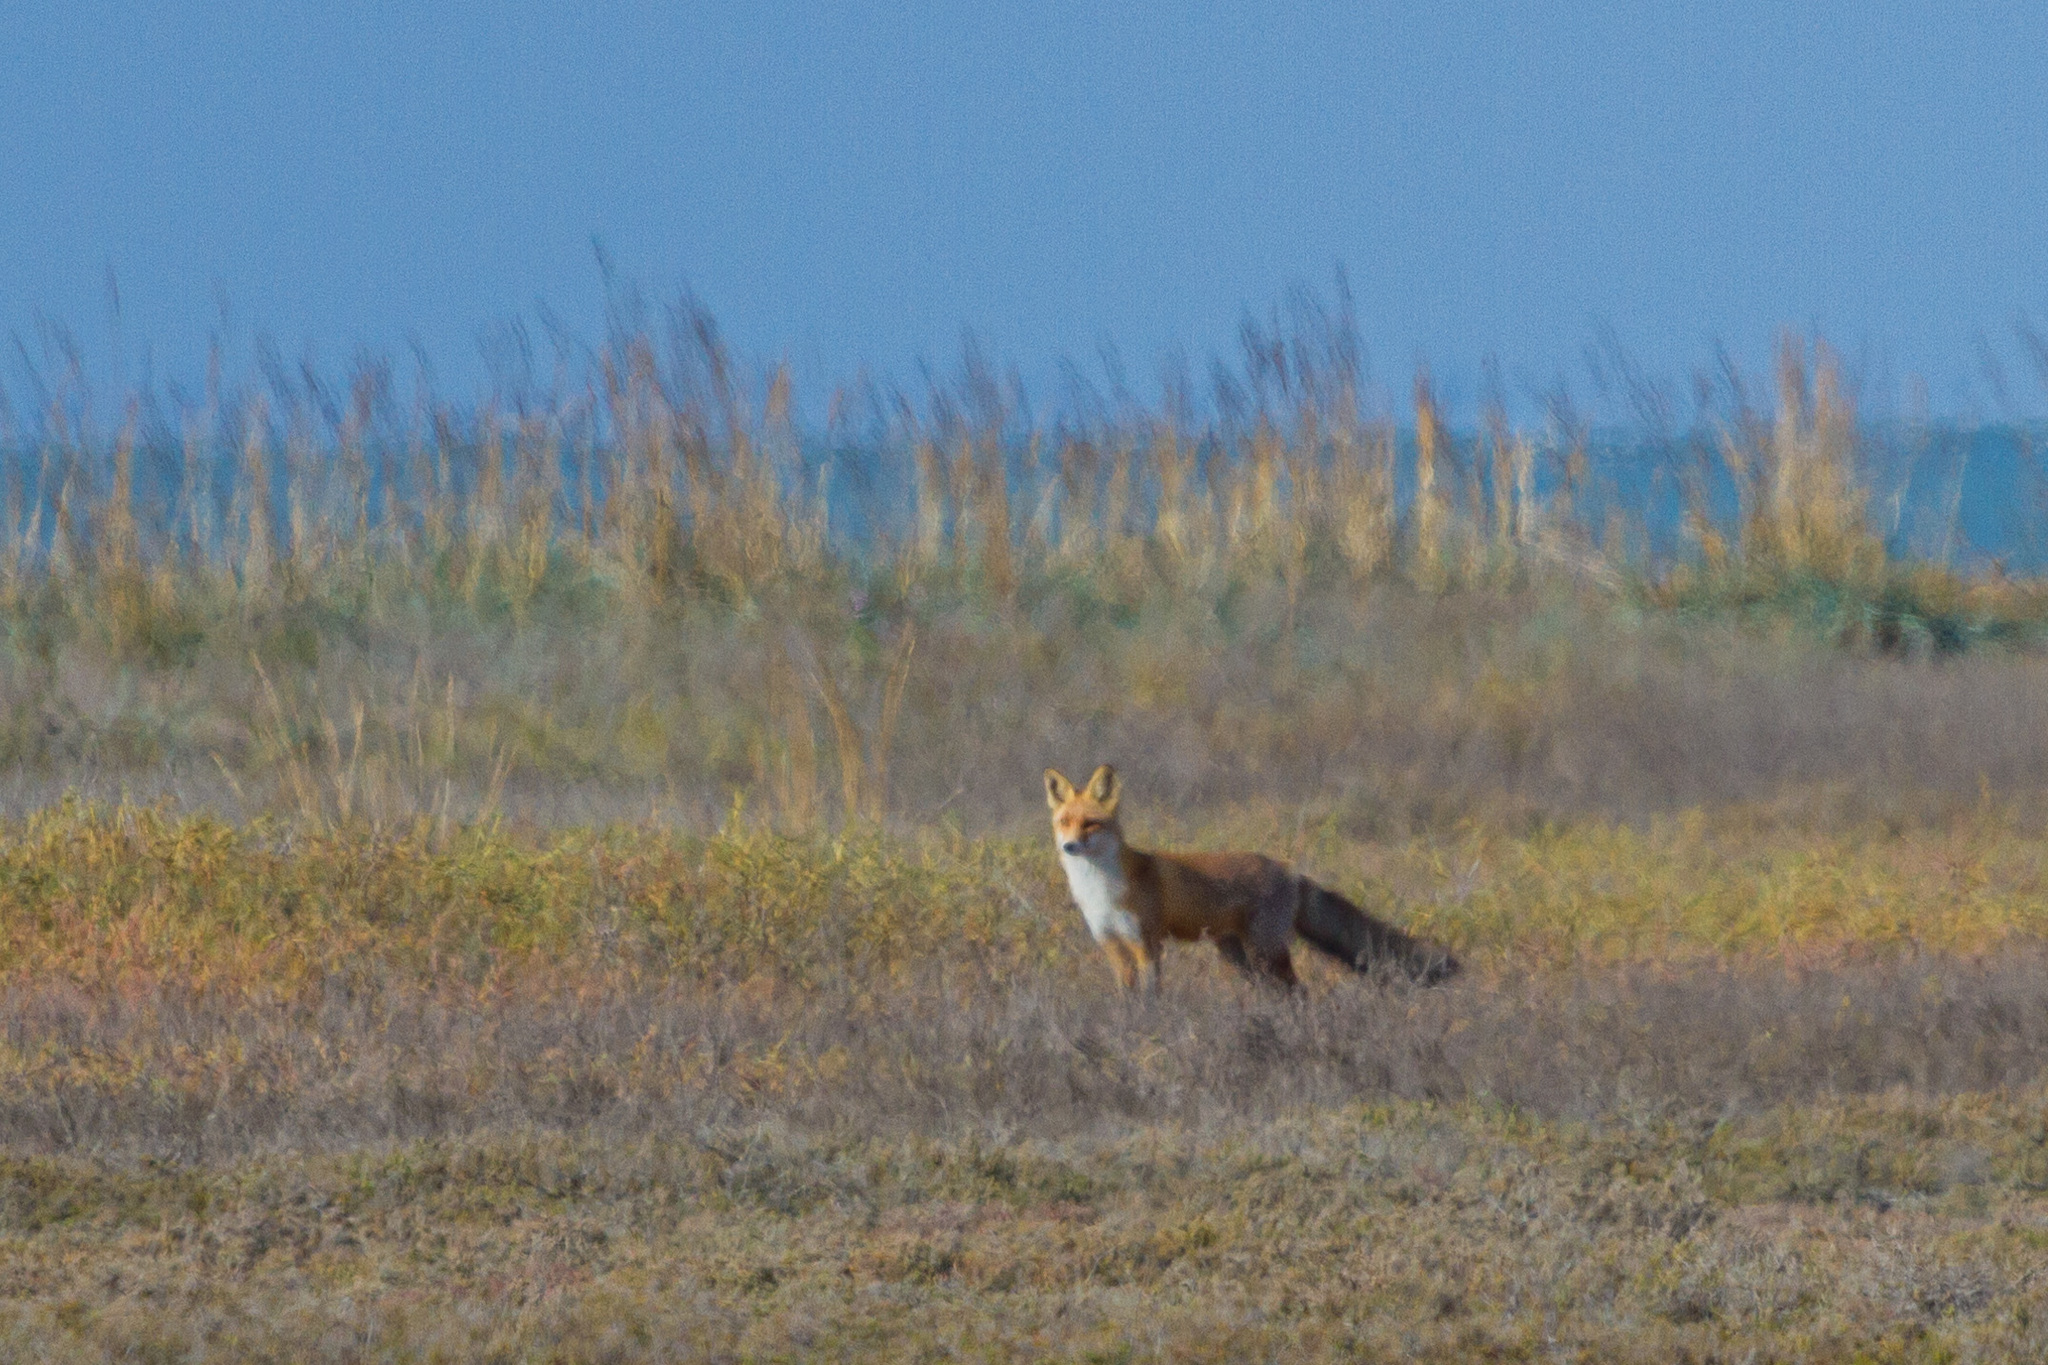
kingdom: Animalia
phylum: Chordata
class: Mammalia
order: Carnivora
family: Canidae
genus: Vulpes
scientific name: Vulpes vulpes
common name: Red fox
